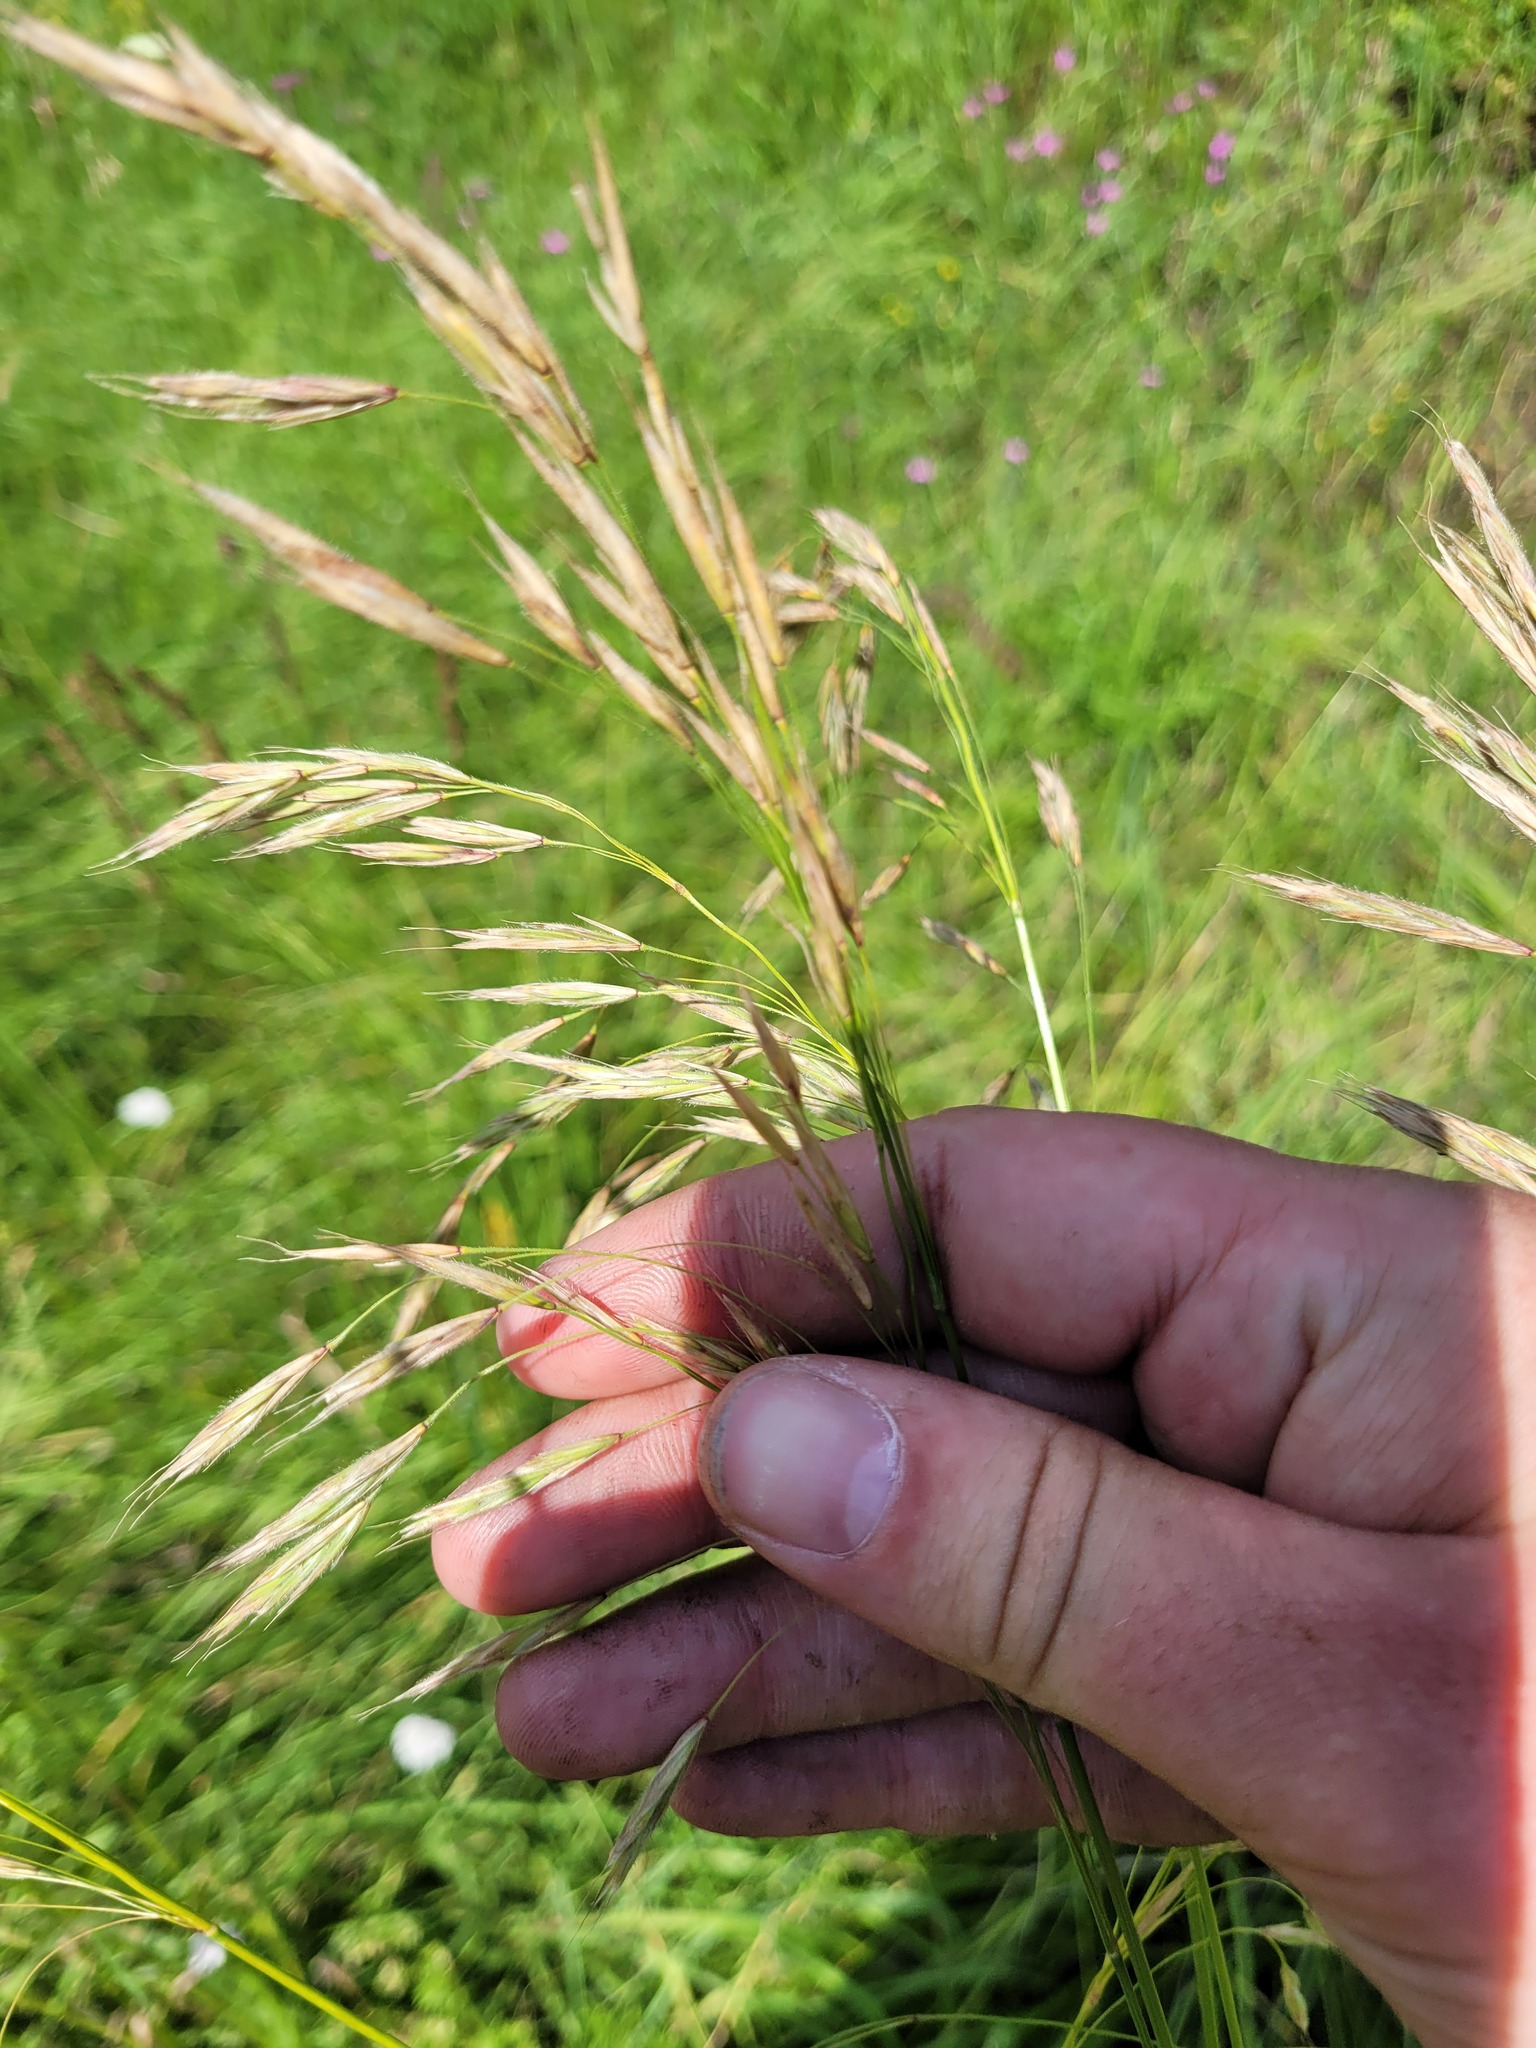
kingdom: Plantae
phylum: Tracheophyta
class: Liliopsida
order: Poales
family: Poaceae
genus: Bromus
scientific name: Bromus riparius
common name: Meadow brome
